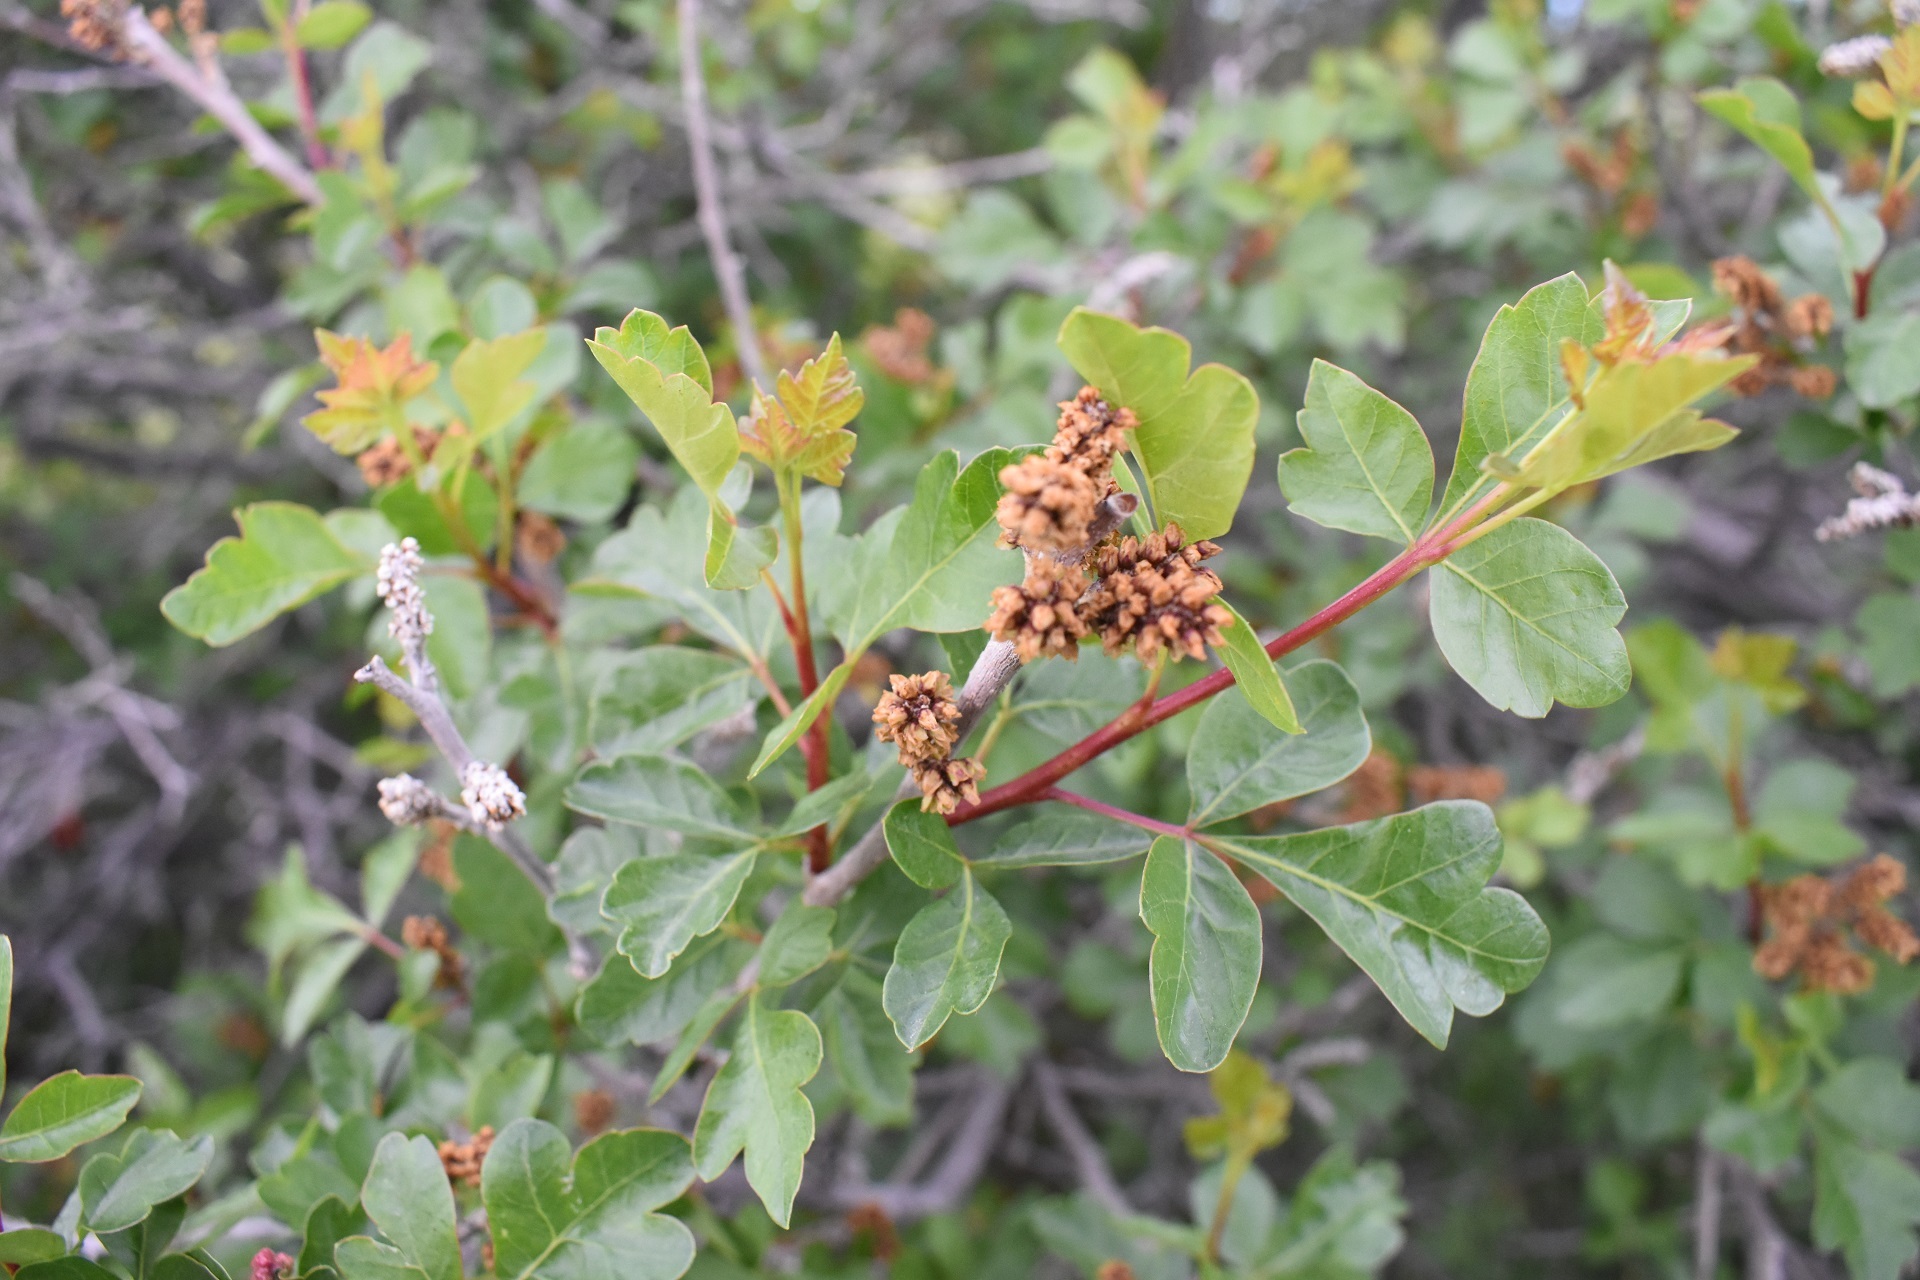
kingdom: Plantae
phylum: Tracheophyta
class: Magnoliopsida
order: Sapindales
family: Anacardiaceae
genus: Rhus
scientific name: Rhus aromatica
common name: Aromatic sumac
